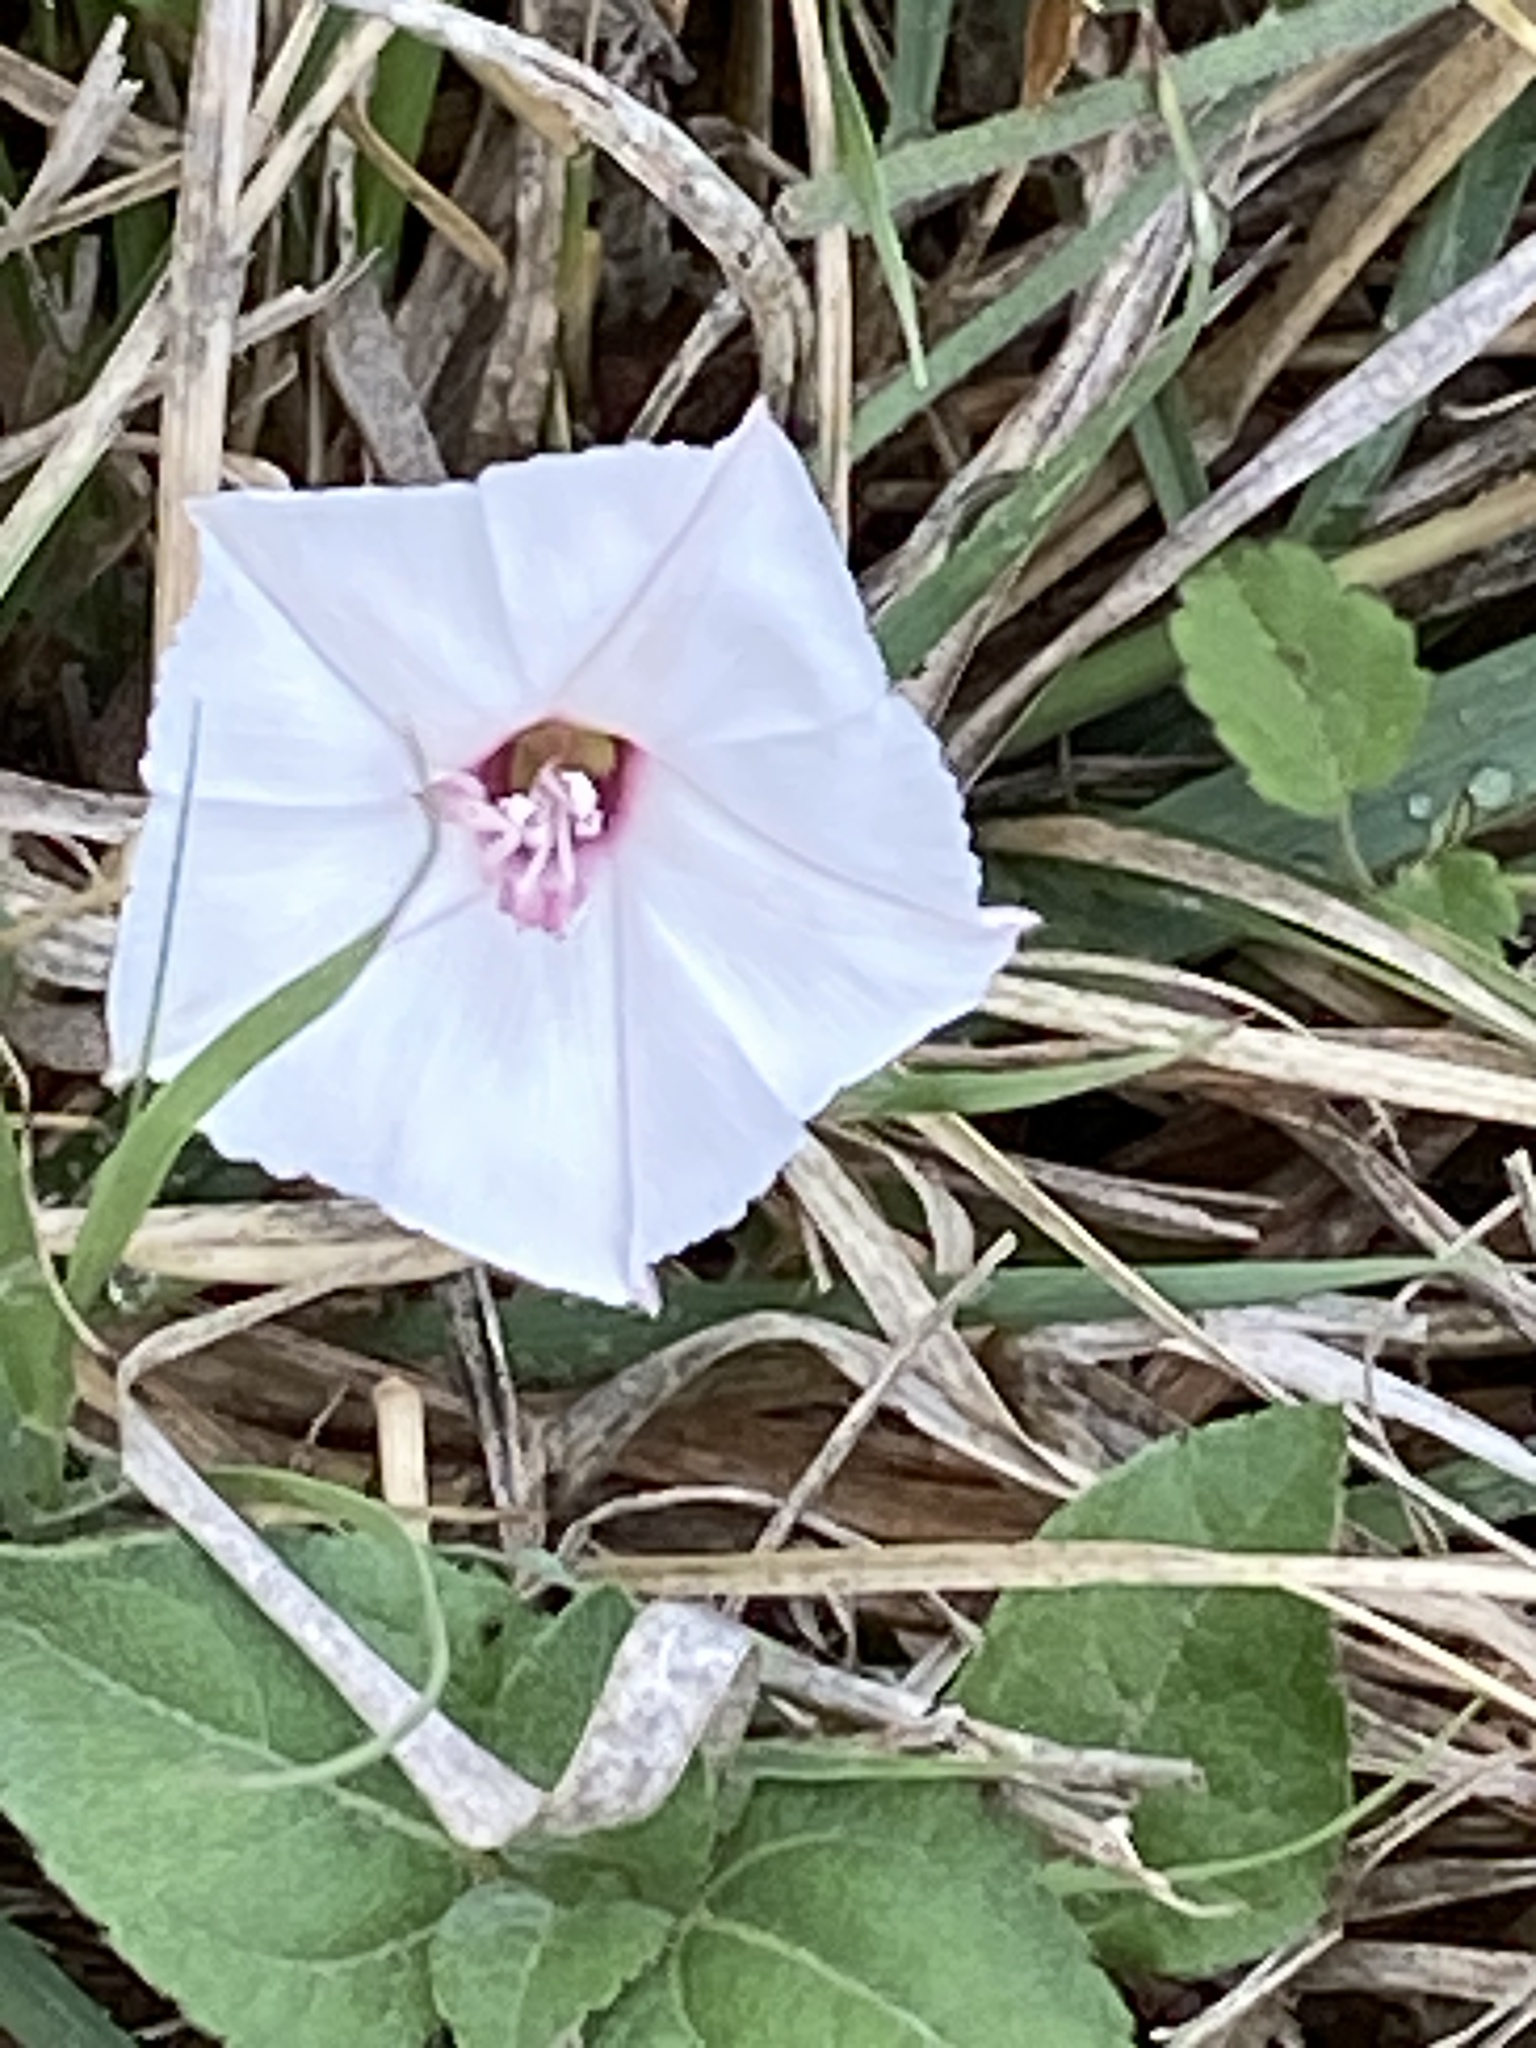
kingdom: Plantae
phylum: Tracheophyta
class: Magnoliopsida
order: Solanales
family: Convolvulaceae
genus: Convolvulus
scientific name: Convolvulus equitans
